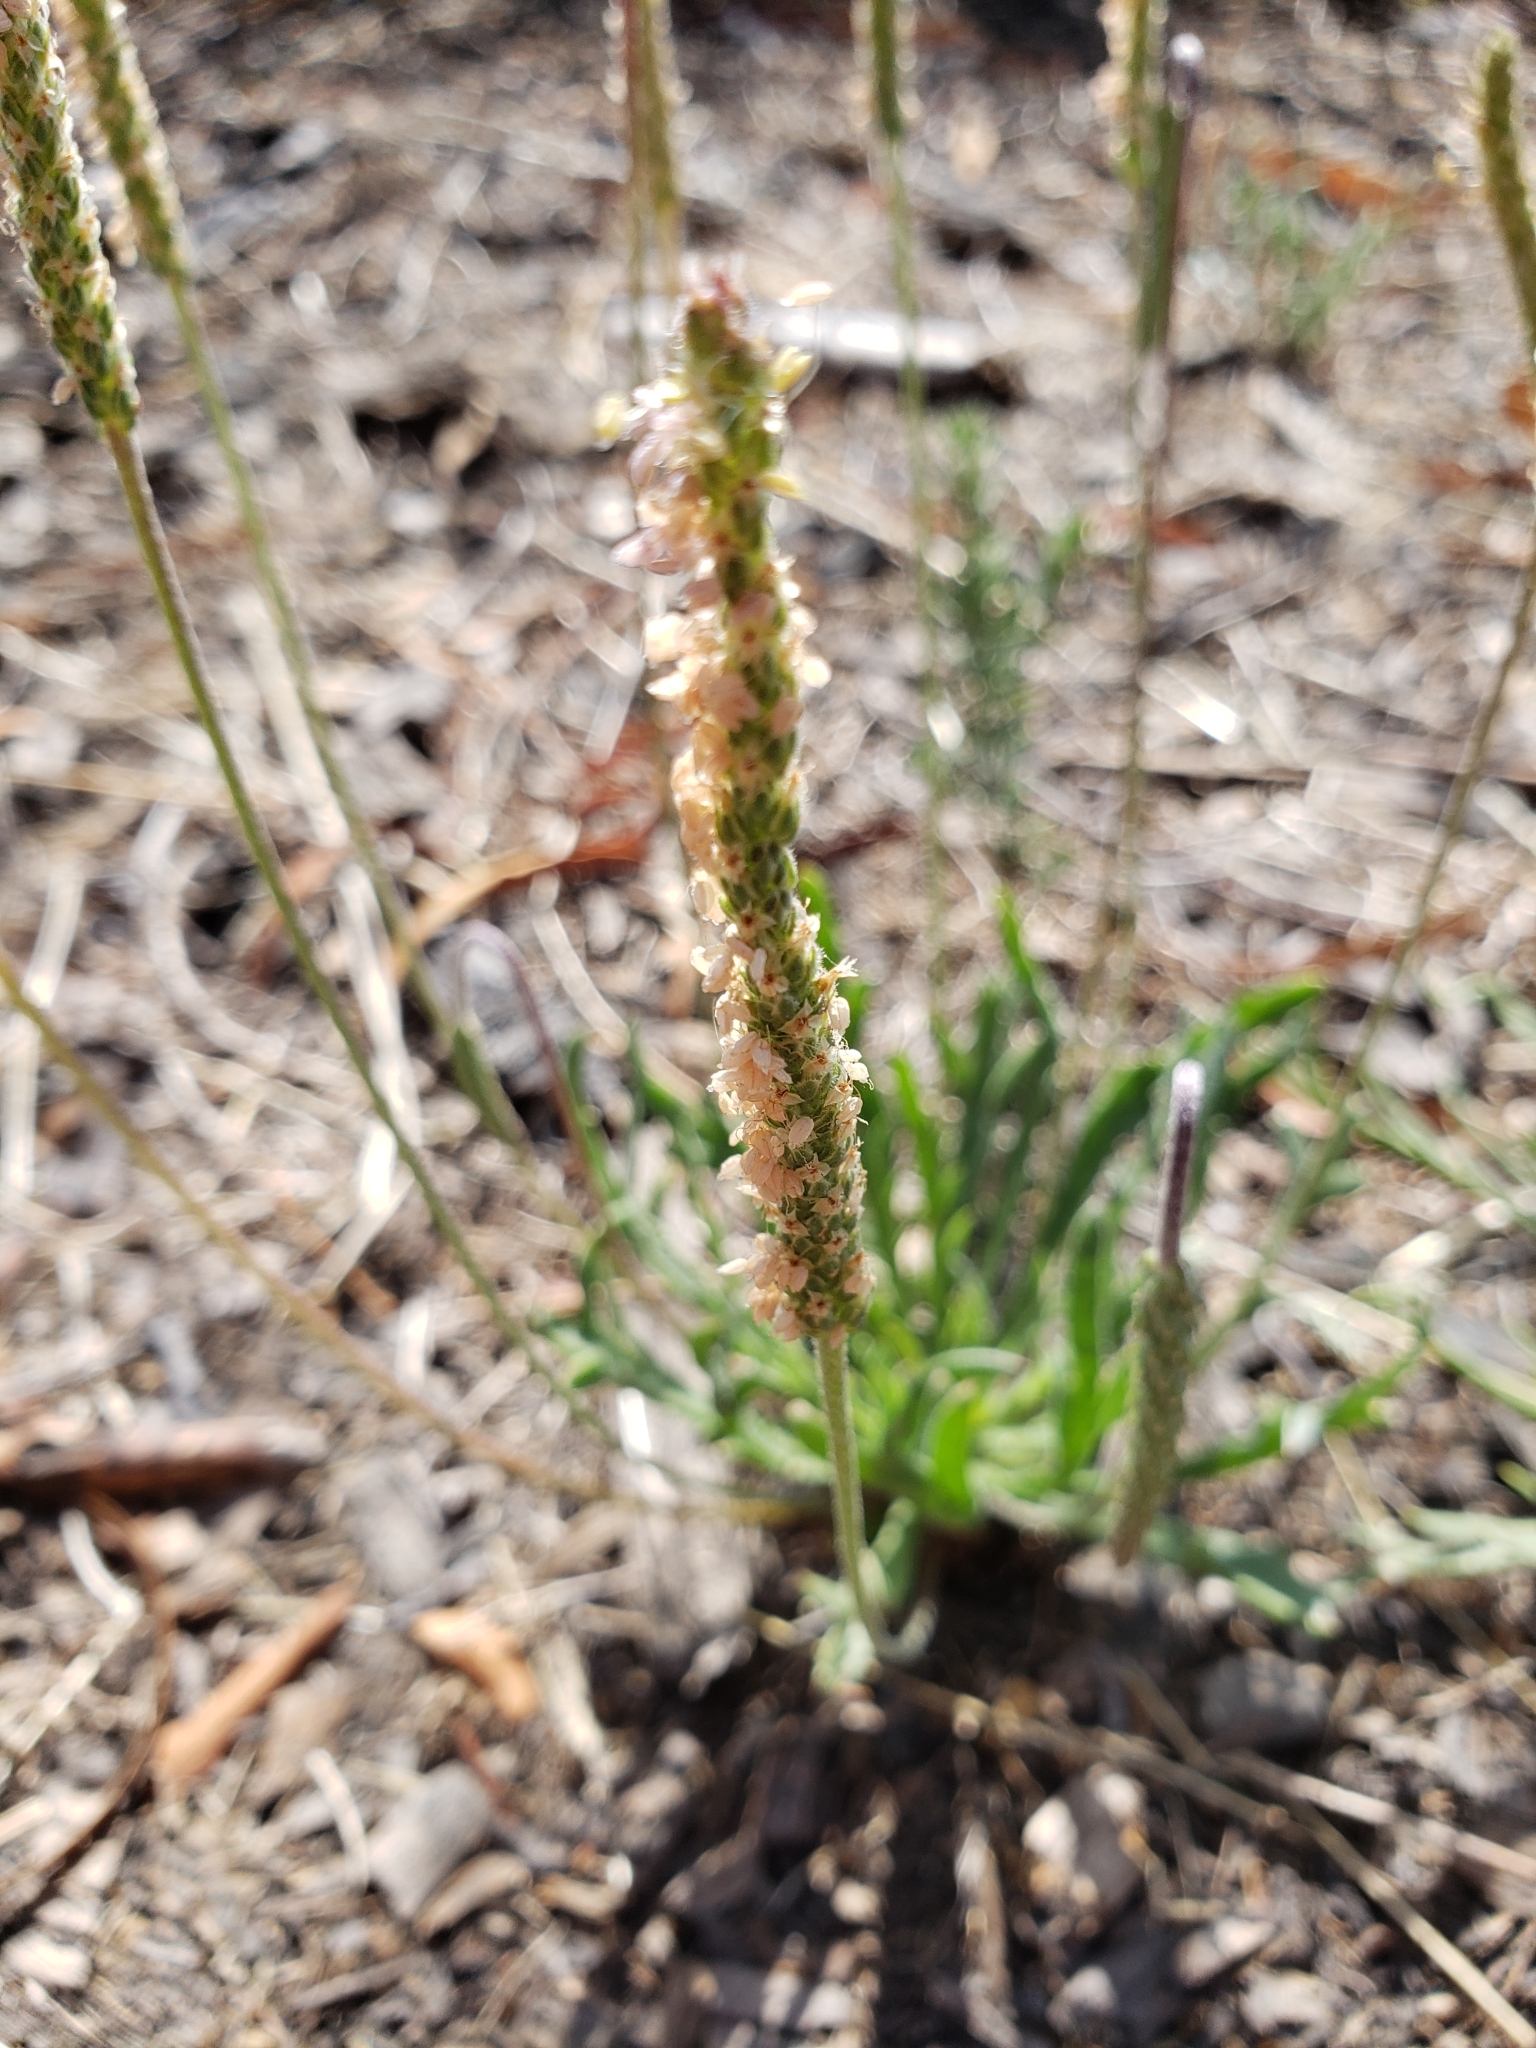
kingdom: Plantae
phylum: Tracheophyta
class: Magnoliopsida
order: Lamiales
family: Plantaginaceae
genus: Plantago
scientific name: Plantago coronopus
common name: Buck's-horn plantain
